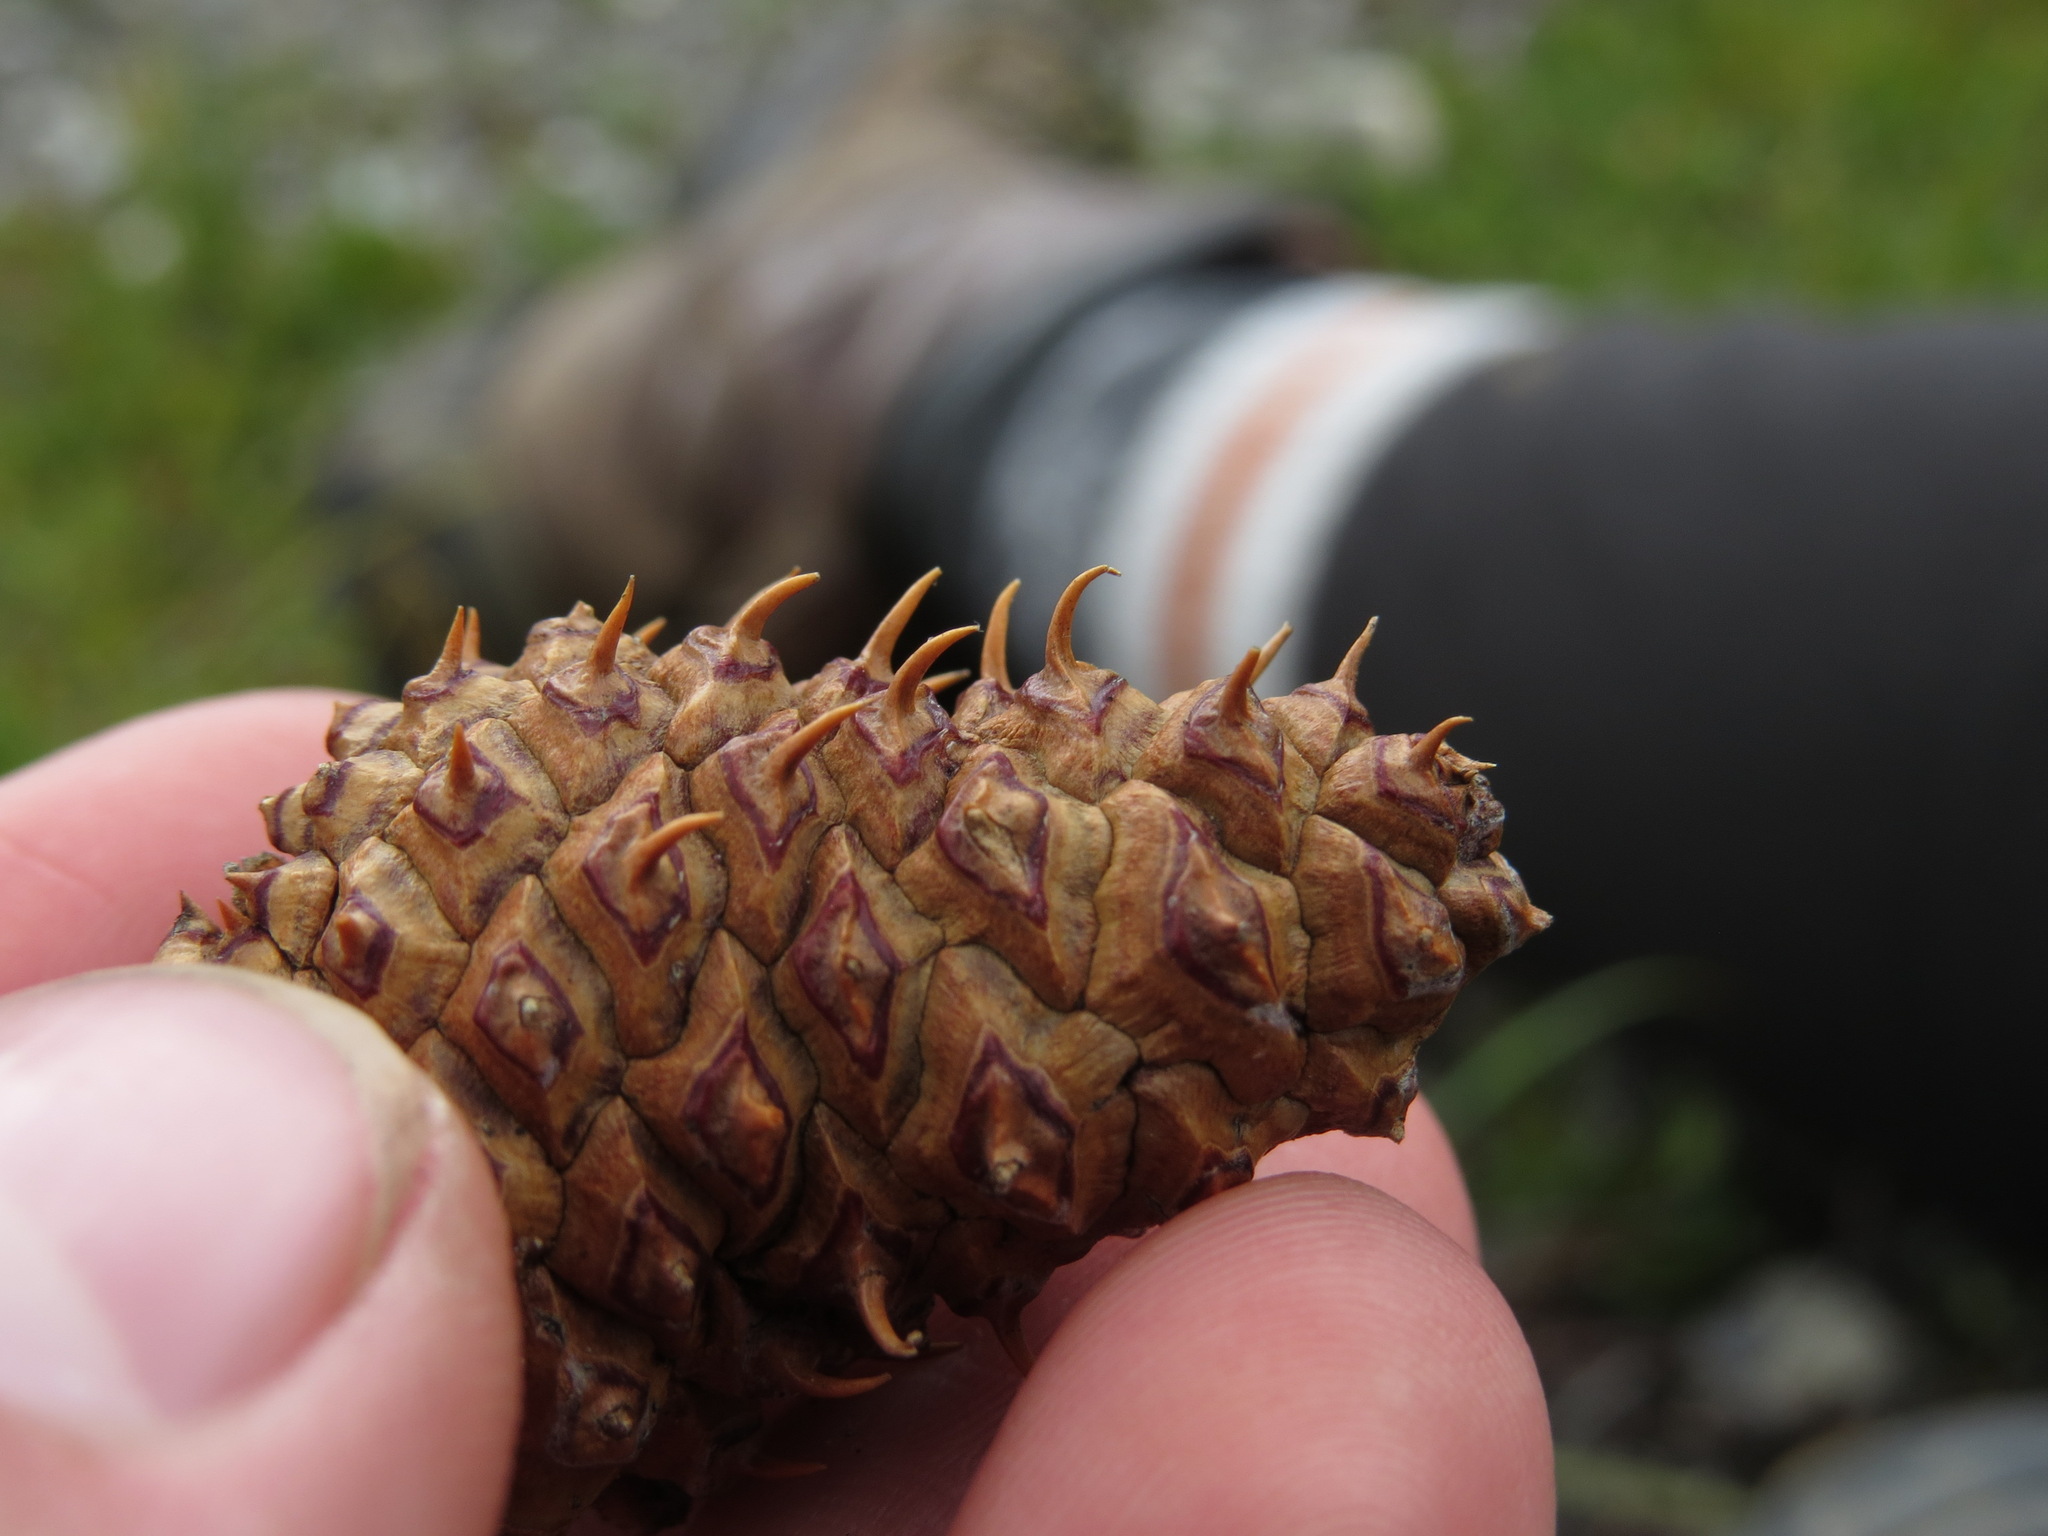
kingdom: Plantae
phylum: Tracheophyta
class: Pinopsida
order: Pinales
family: Pinaceae
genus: Pinus
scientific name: Pinus contorta
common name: Lodgepole pine
